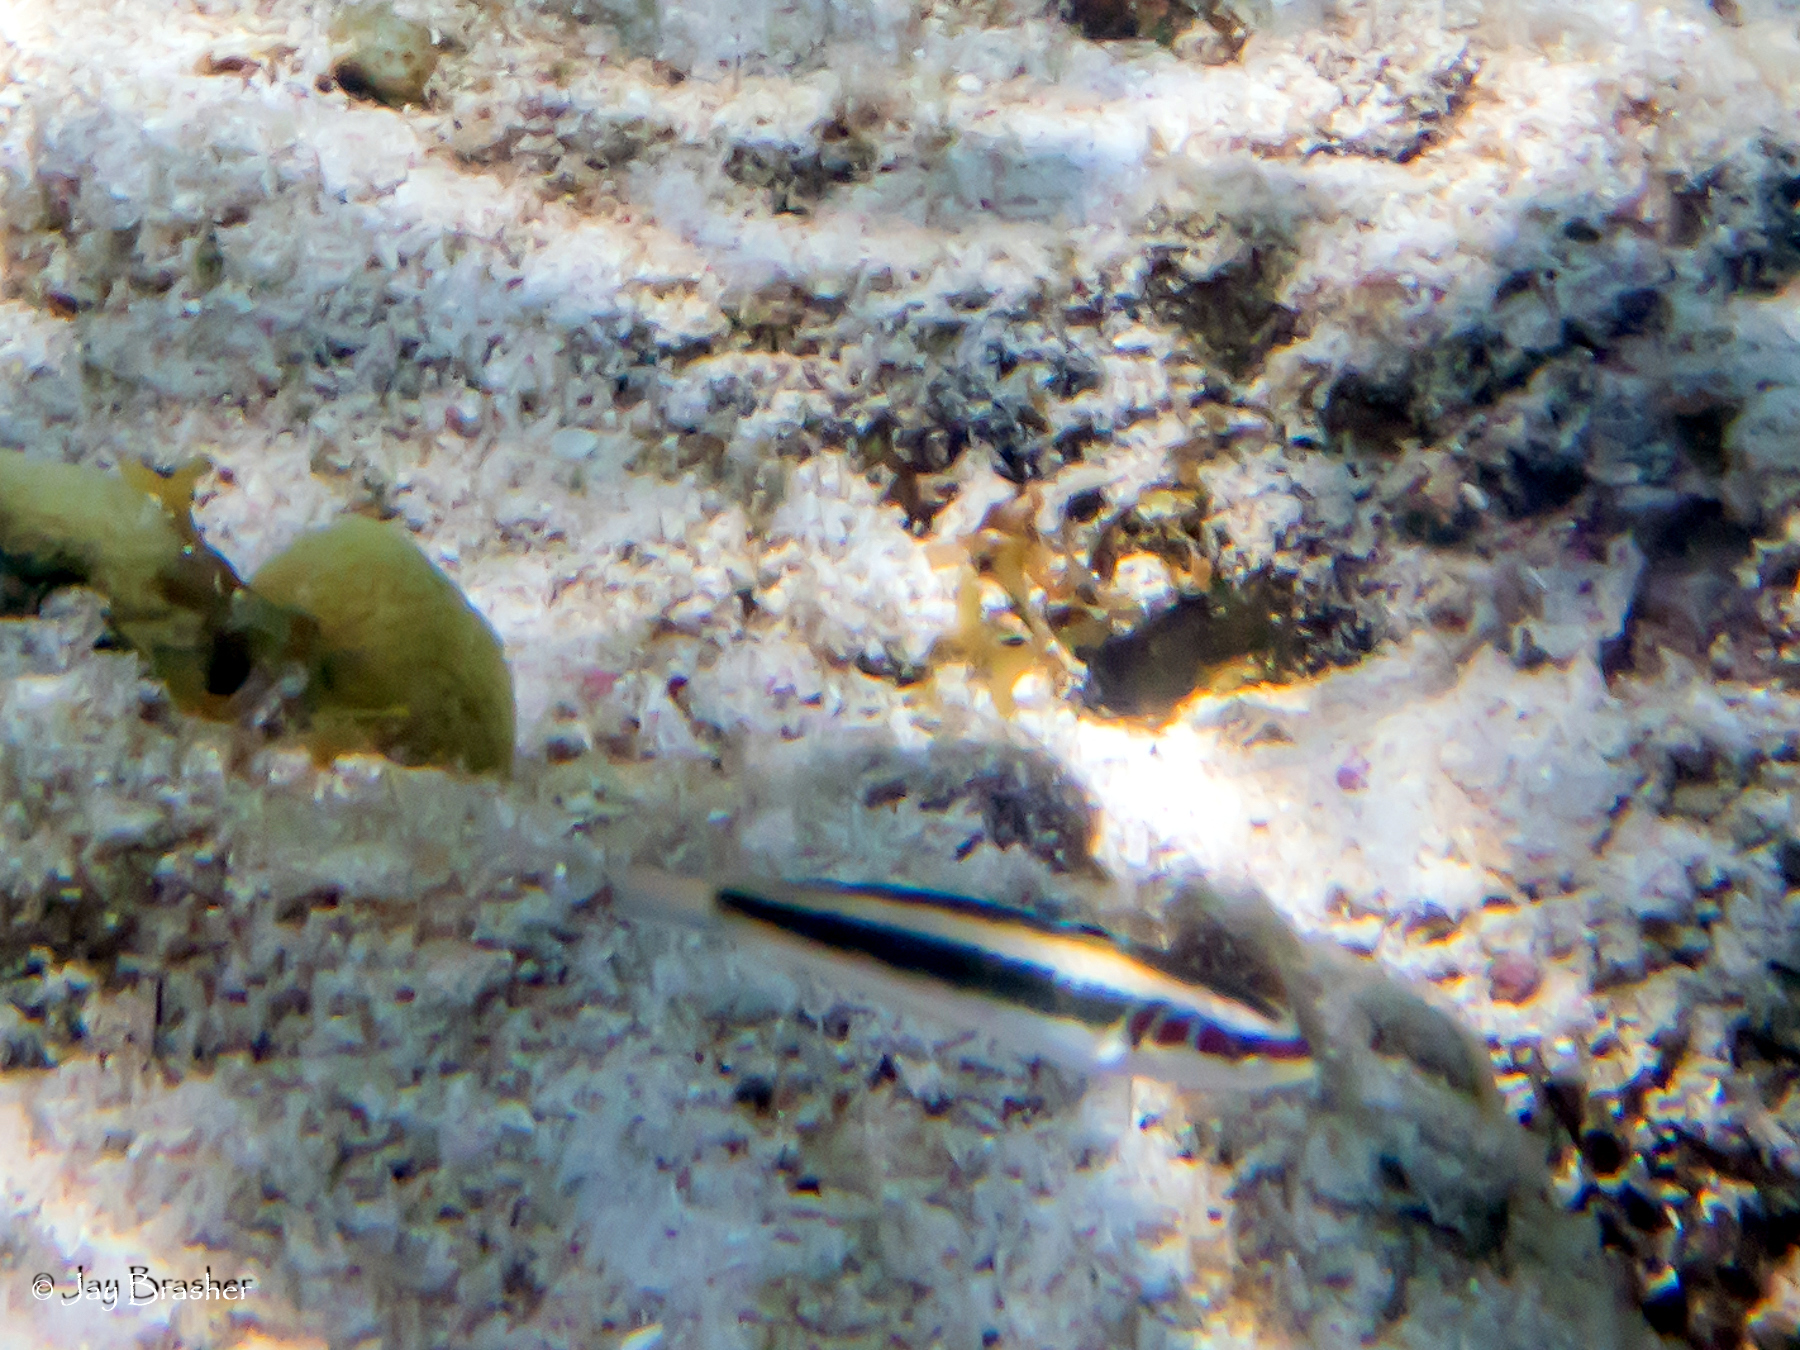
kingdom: Animalia
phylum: Chordata
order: Perciformes
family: Labridae
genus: Thalassoma
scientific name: Thalassoma bifasciatum
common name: Bluehead wrasse
